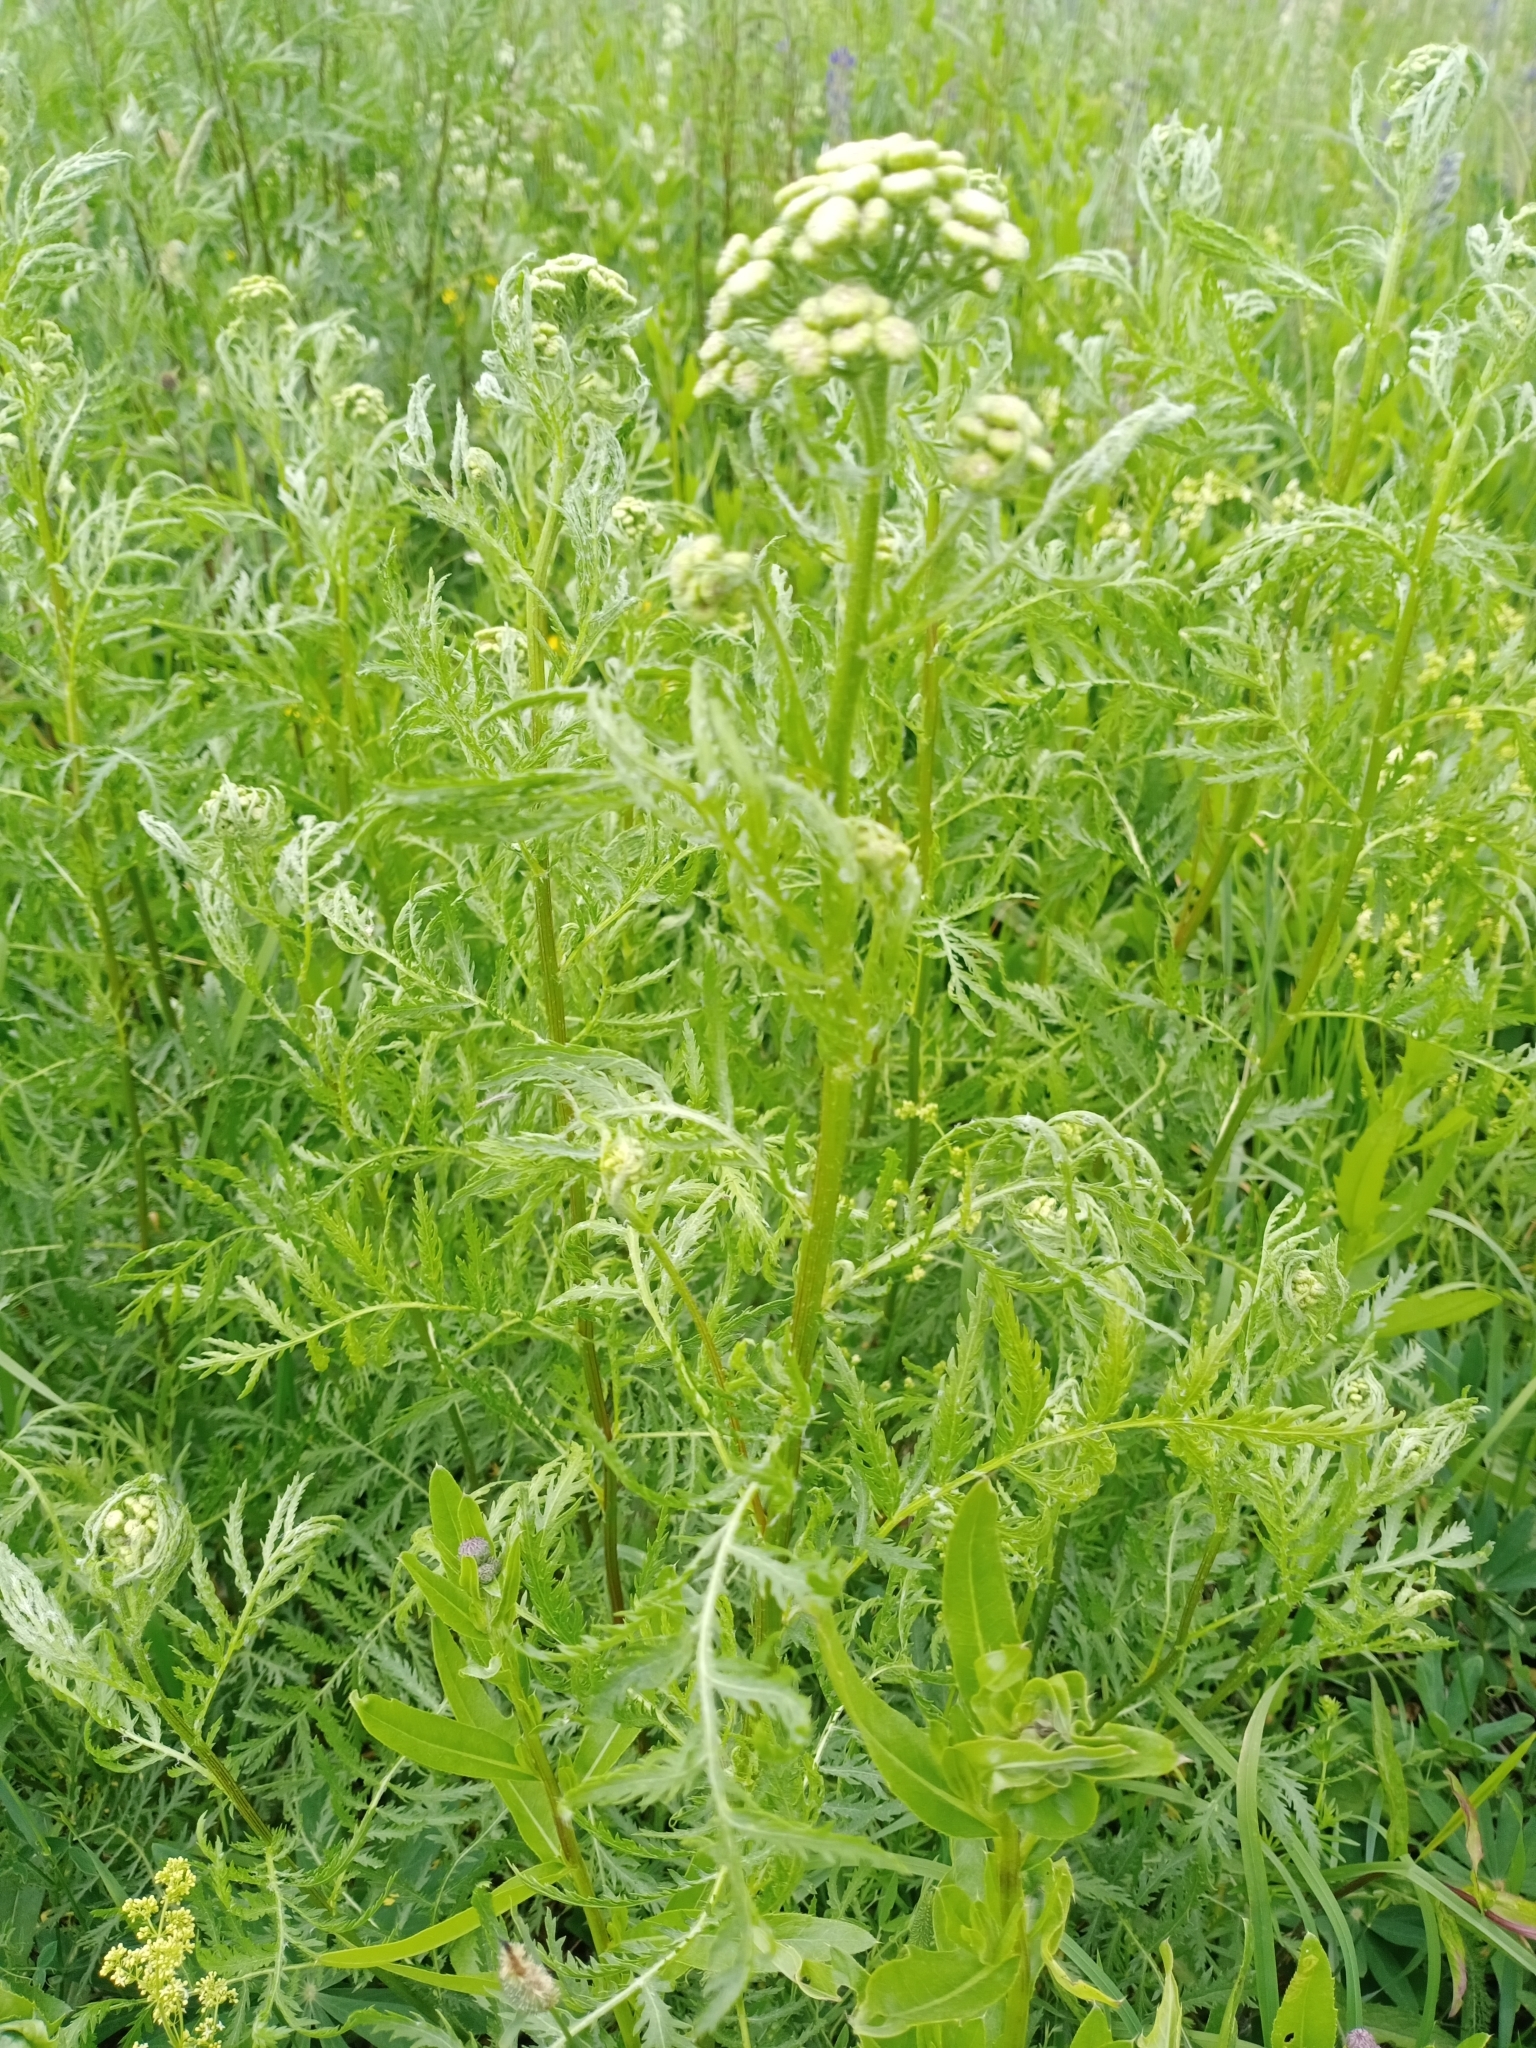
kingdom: Plantae
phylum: Tracheophyta
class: Magnoliopsida
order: Asterales
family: Asteraceae
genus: Tanacetum
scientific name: Tanacetum vulgare
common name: Common tansy
